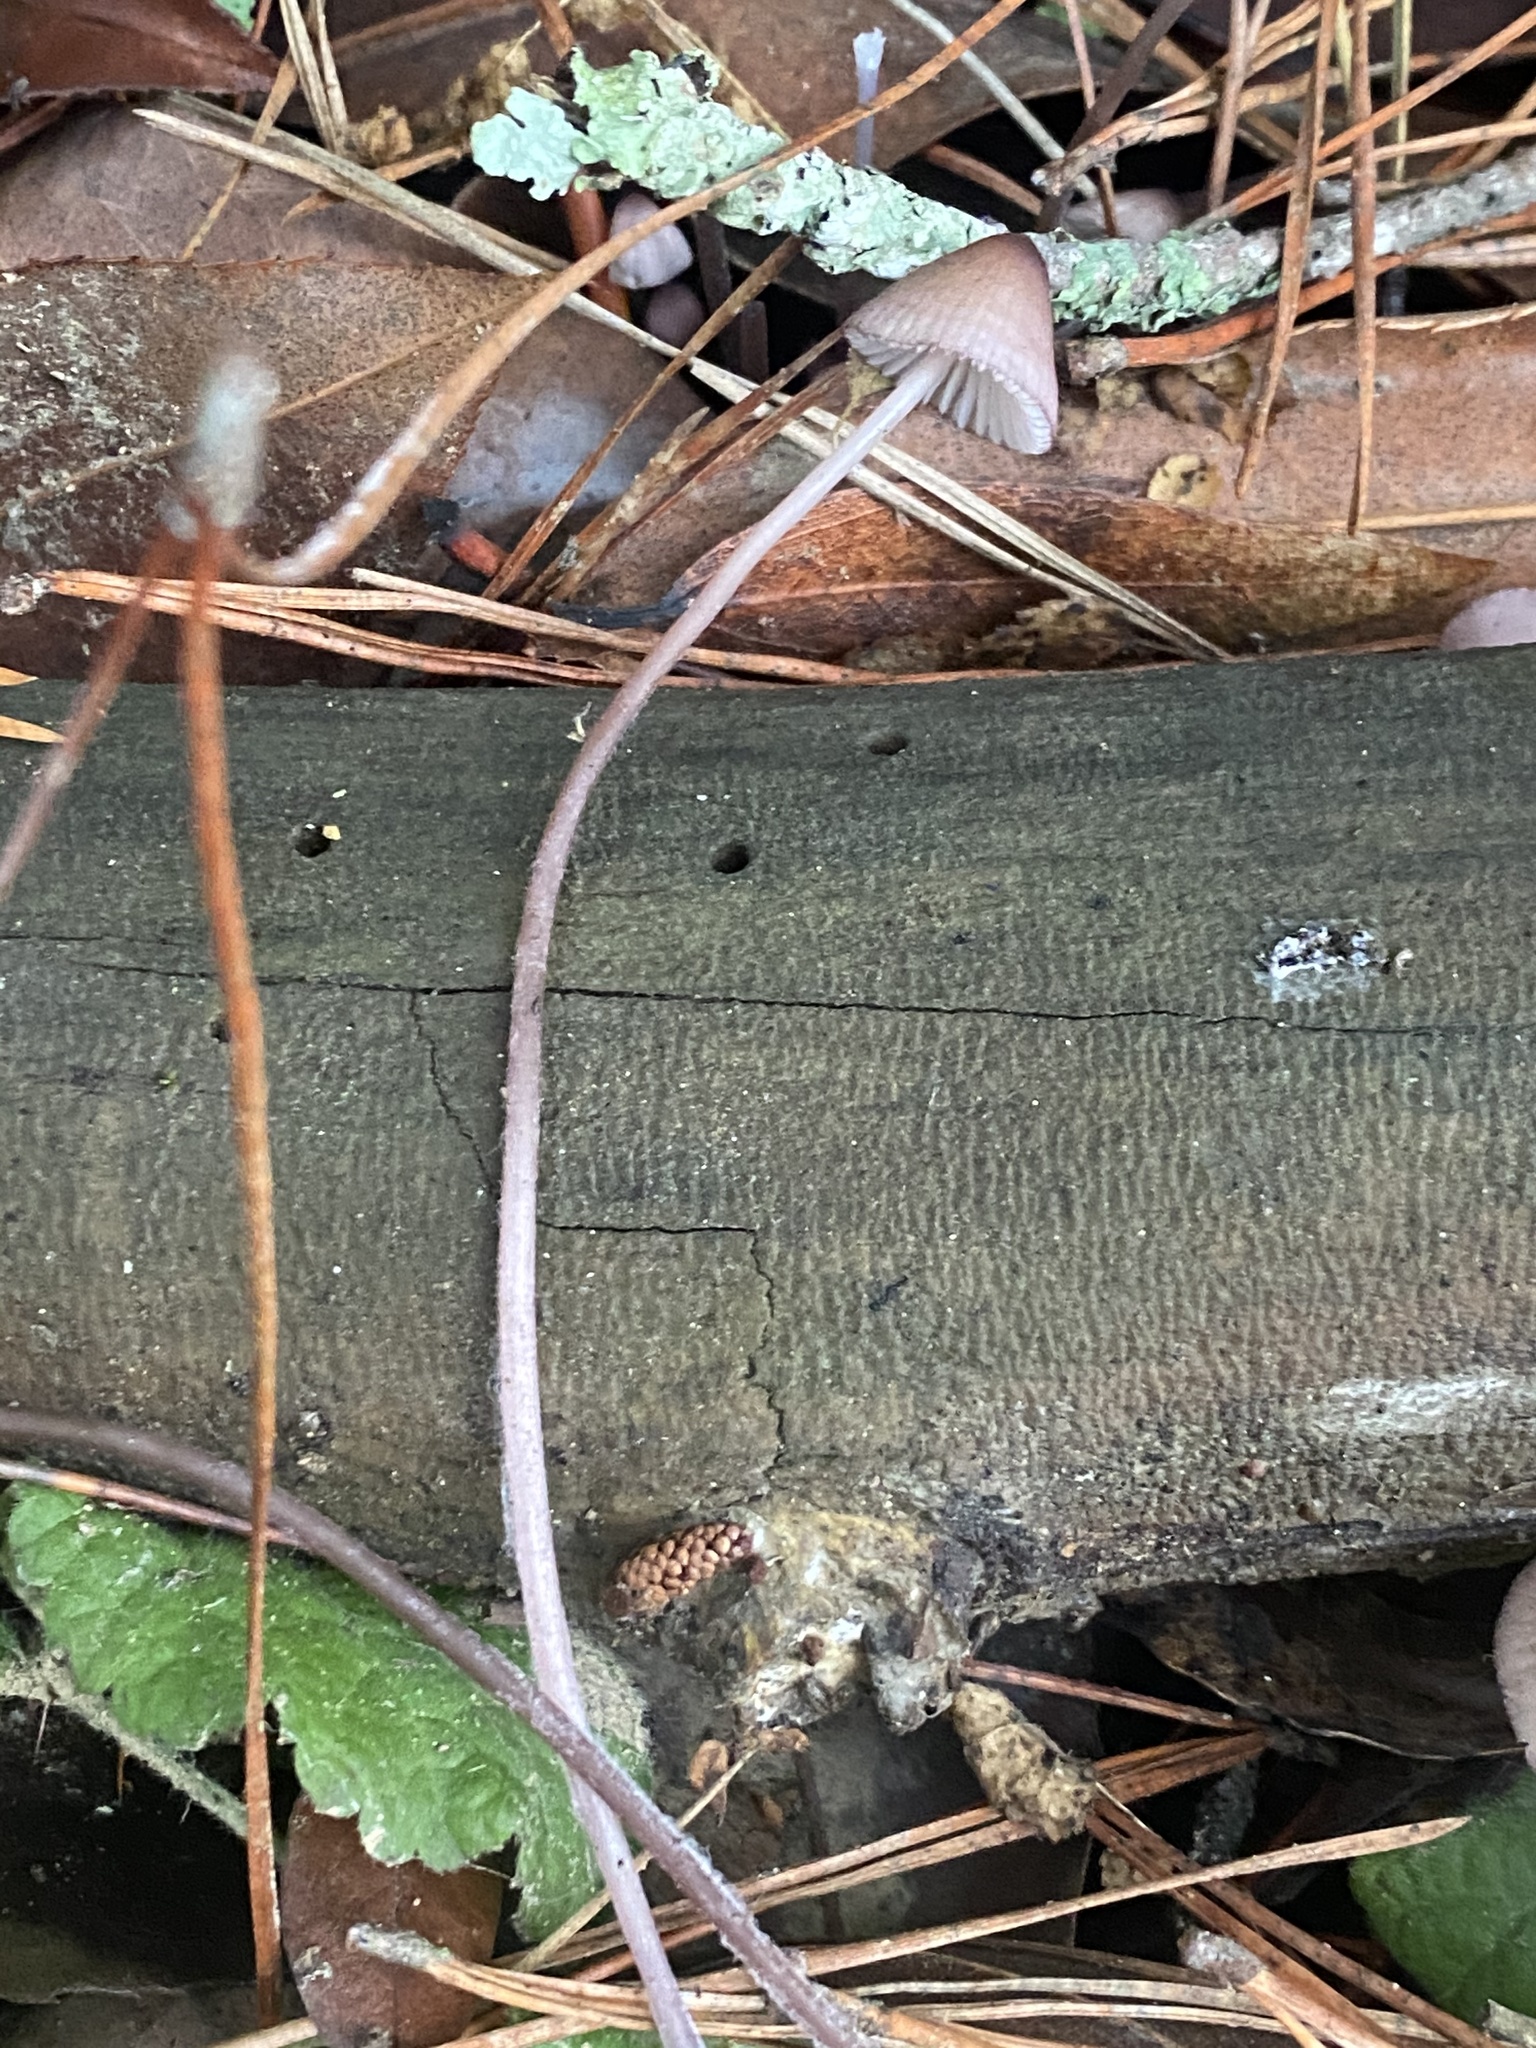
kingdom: Fungi
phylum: Basidiomycota
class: Agaricomycetes
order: Agaricales
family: Mycenaceae
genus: Mycena
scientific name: Mycena purpureofusca
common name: Purple edge bonnet
